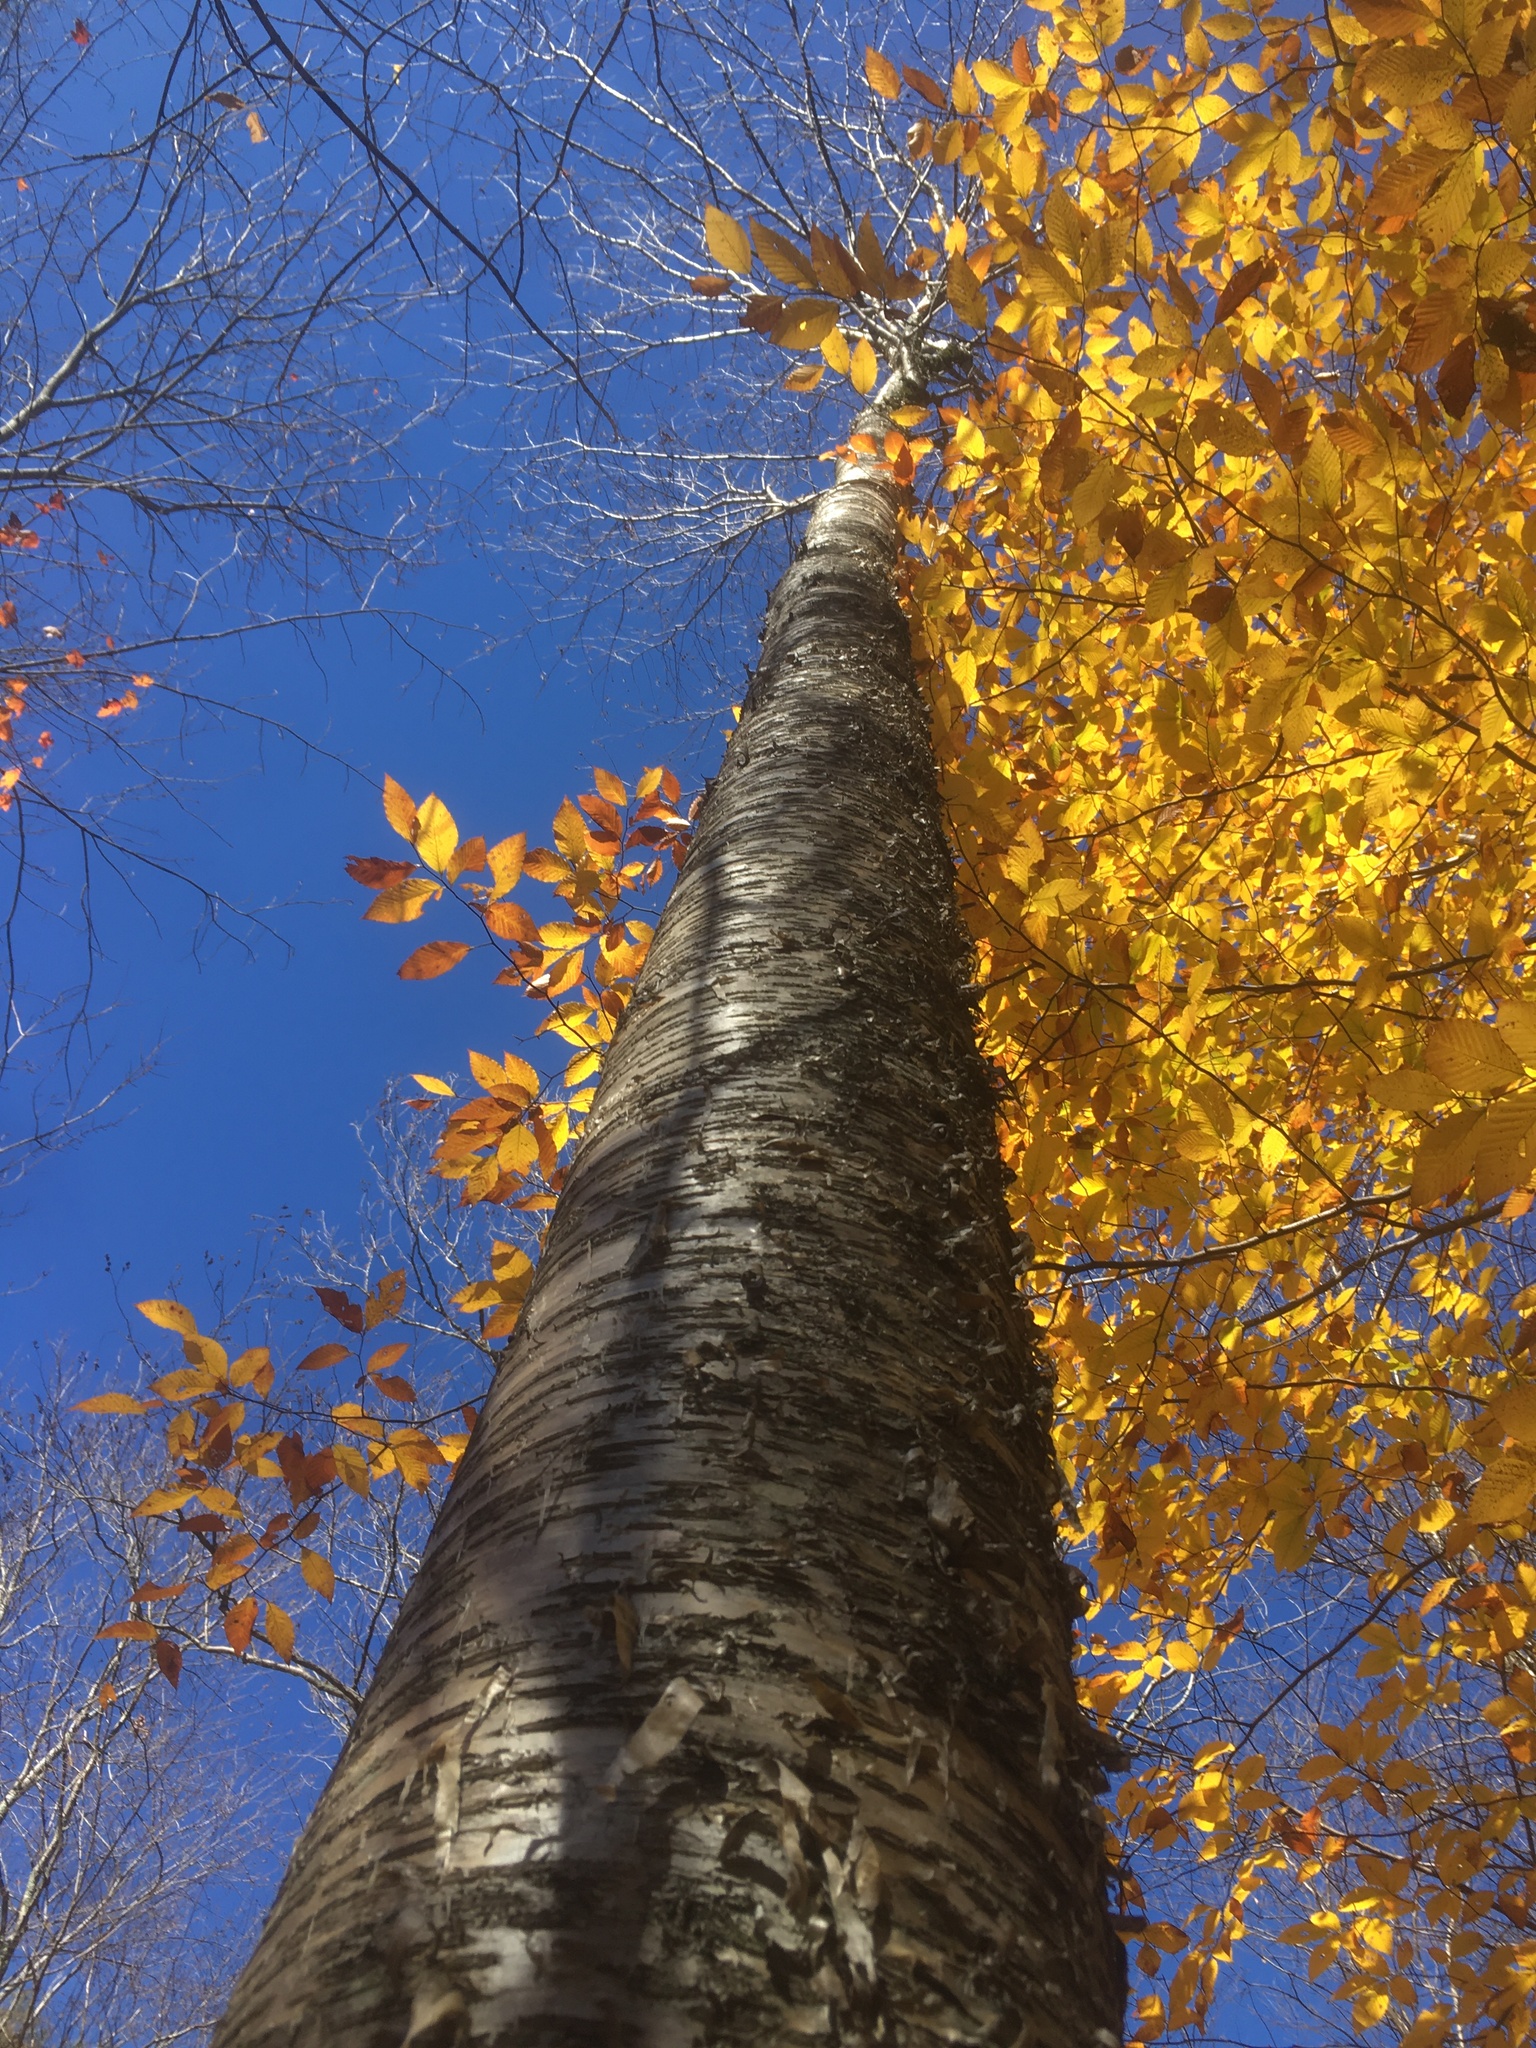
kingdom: Plantae
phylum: Tracheophyta
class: Magnoliopsida
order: Fagales
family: Betulaceae
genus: Betula
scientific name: Betula alleghaniensis
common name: Yellow birch
